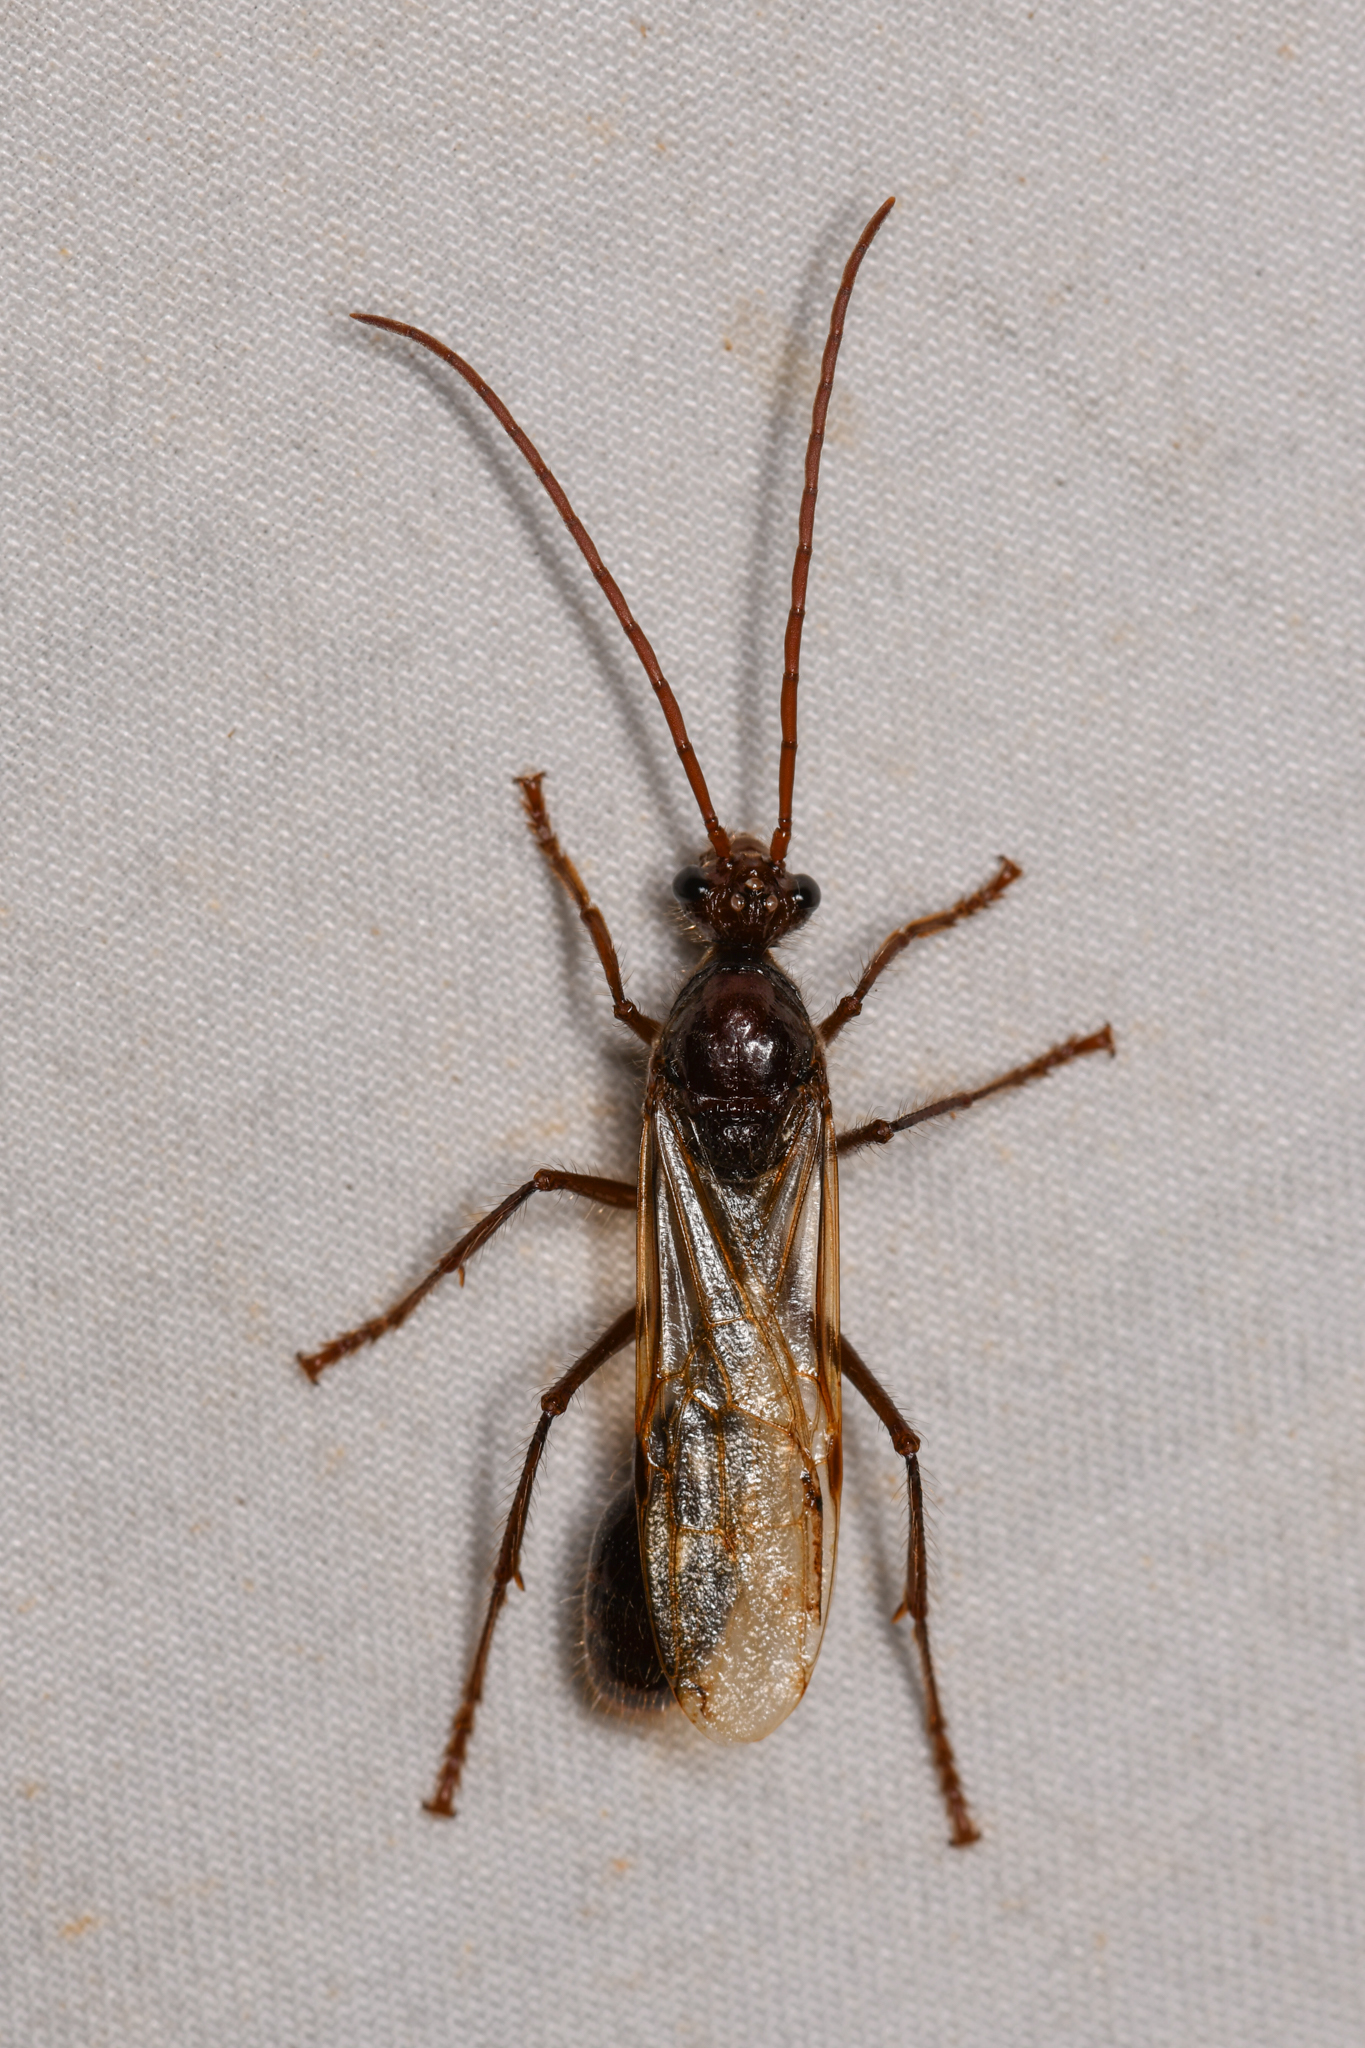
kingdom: Animalia
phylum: Arthropoda
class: Insecta
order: Hymenoptera
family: Formicidae
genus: Paraponera
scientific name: Paraponera clavata
